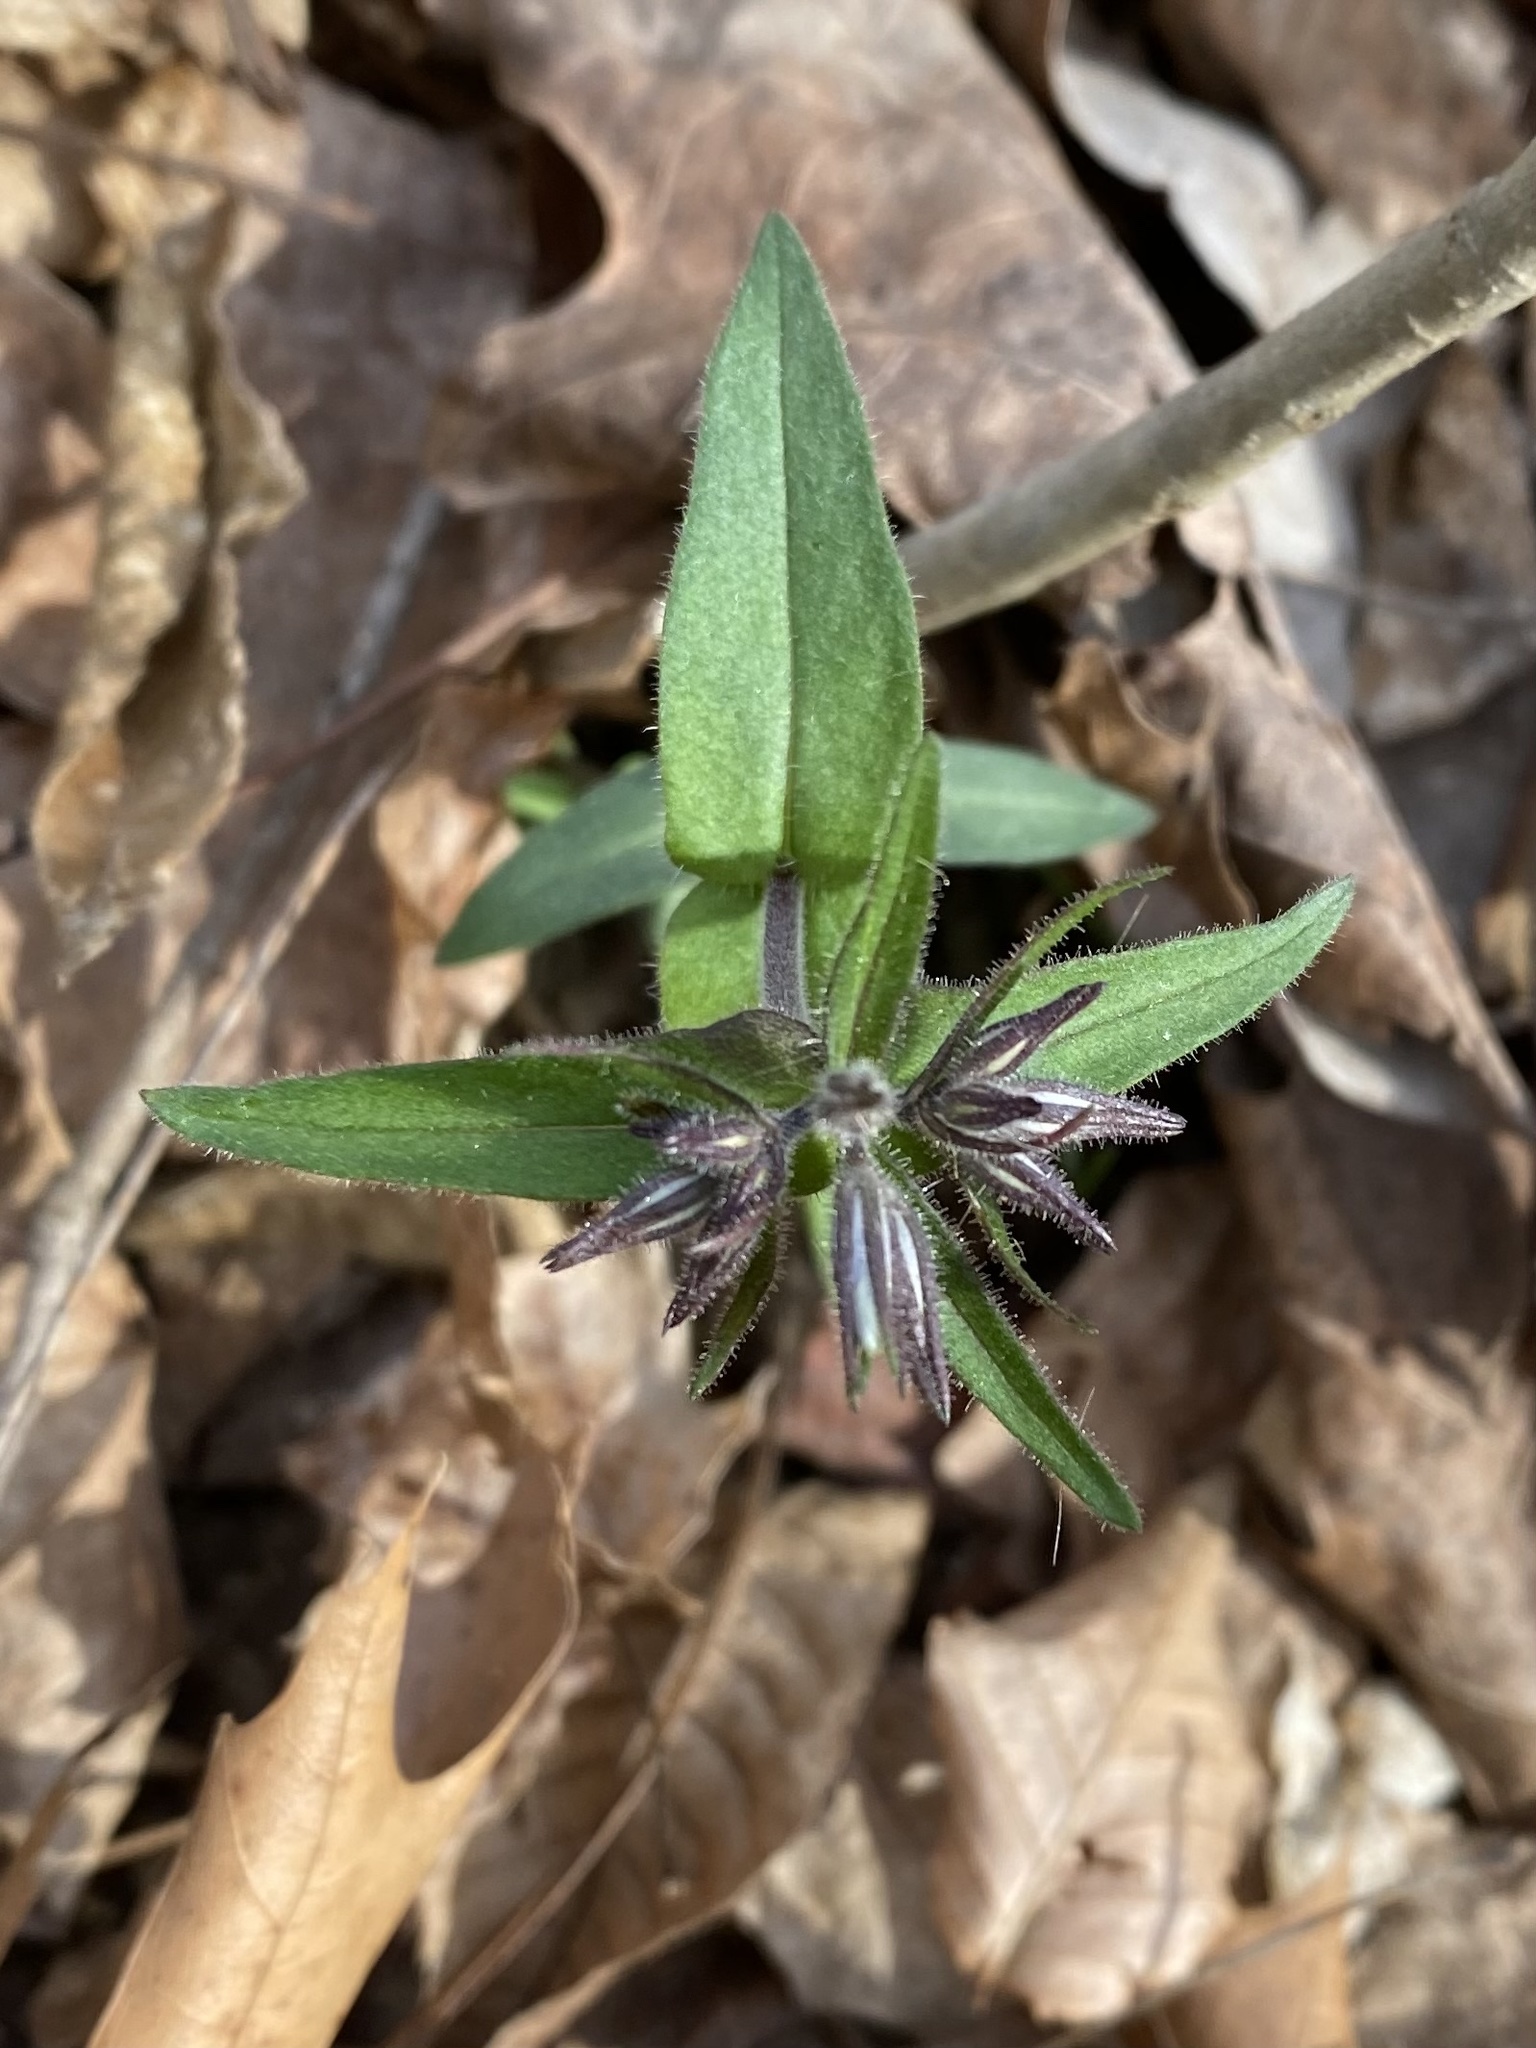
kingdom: Plantae
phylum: Tracheophyta
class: Magnoliopsida
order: Ericales
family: Polemoniaceae
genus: Phlox
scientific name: Phlox divaricata
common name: Blue phlox
